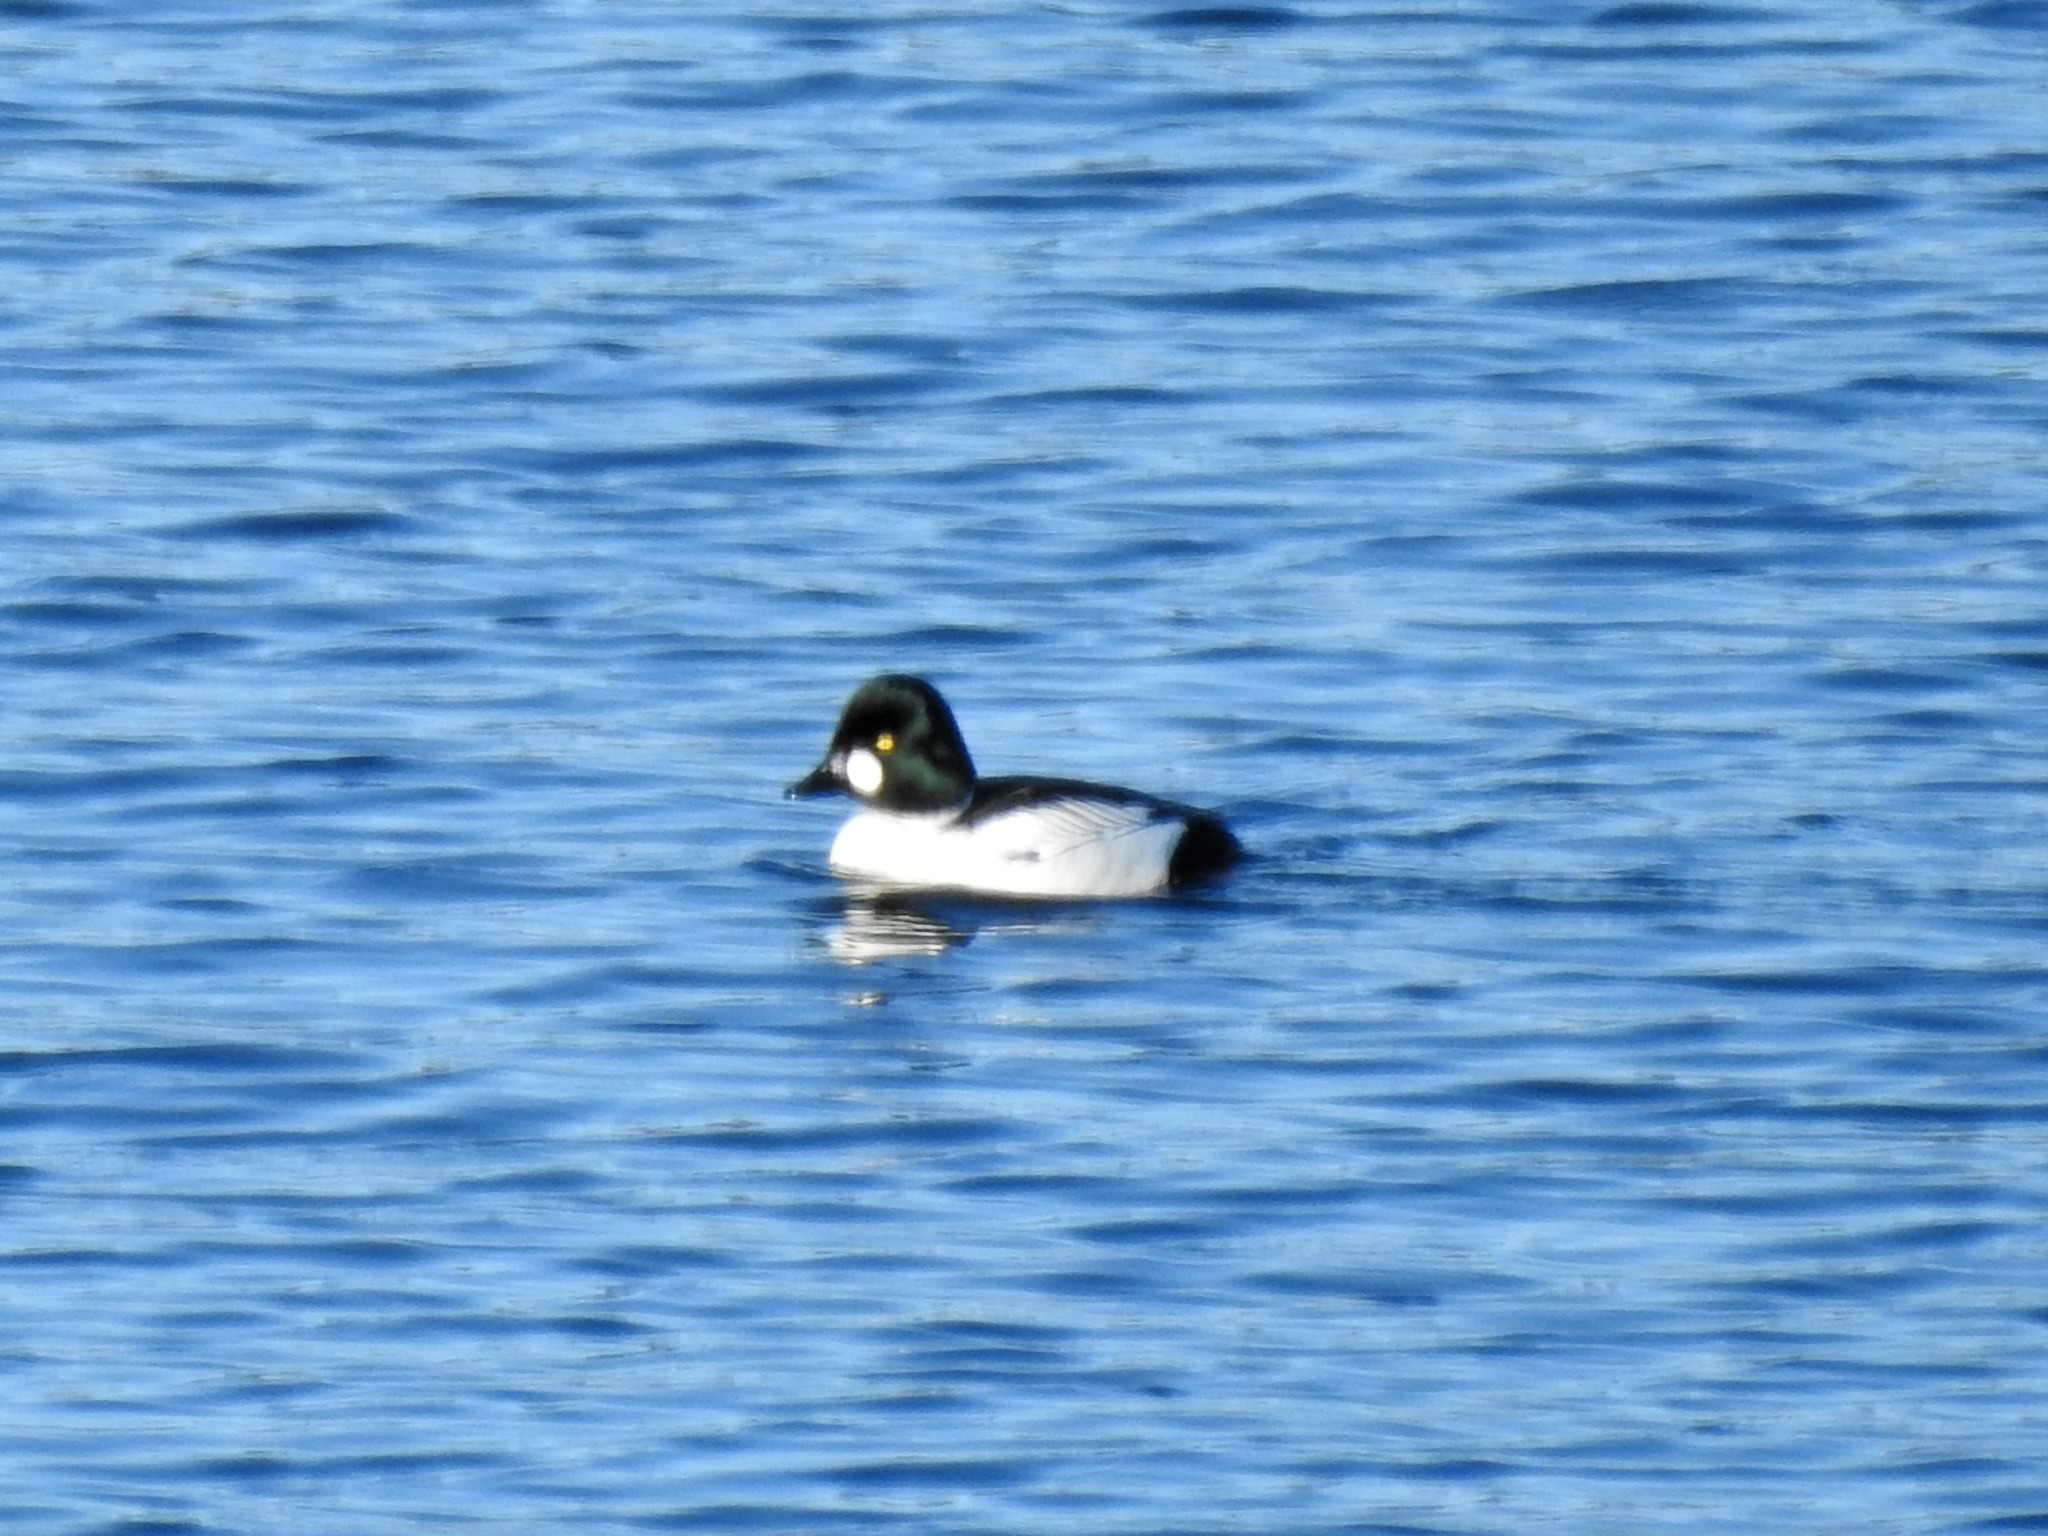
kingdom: Animalia
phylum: Chordata
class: Aves
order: Anseriformes
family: Anatidae
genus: Bucephala
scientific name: Bucephala clangula
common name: Common goldeneye
